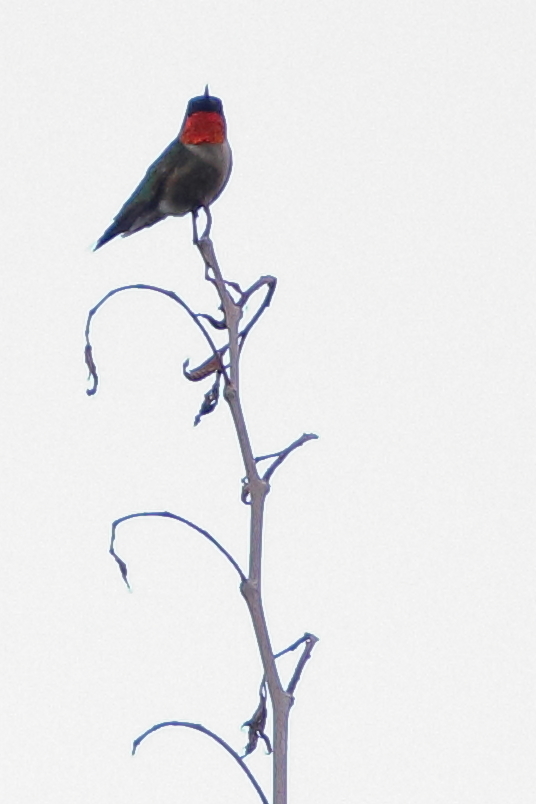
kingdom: Animalia
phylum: Chordata
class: Aves
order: Apodiformes
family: Trochilidae
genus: Archilochus
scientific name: Archilochus colubris
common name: Ruby-throated hummingbird
